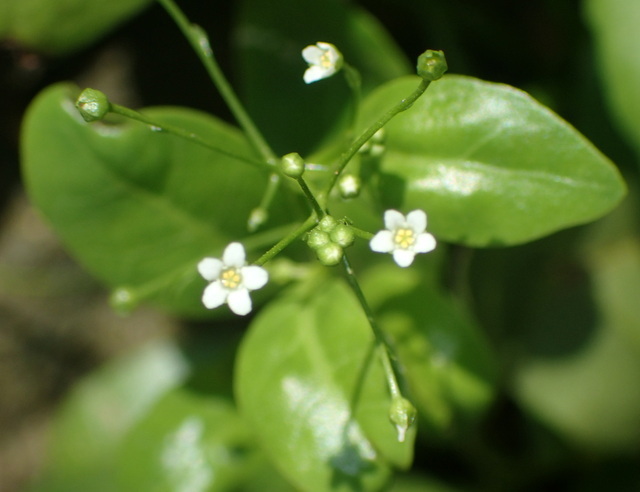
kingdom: Plantae
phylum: Tracheophyta
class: Magnoliopsida
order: Ericales
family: Primulaceae
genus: Samolus
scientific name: Samolus parviflorus
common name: False water pimpernel
